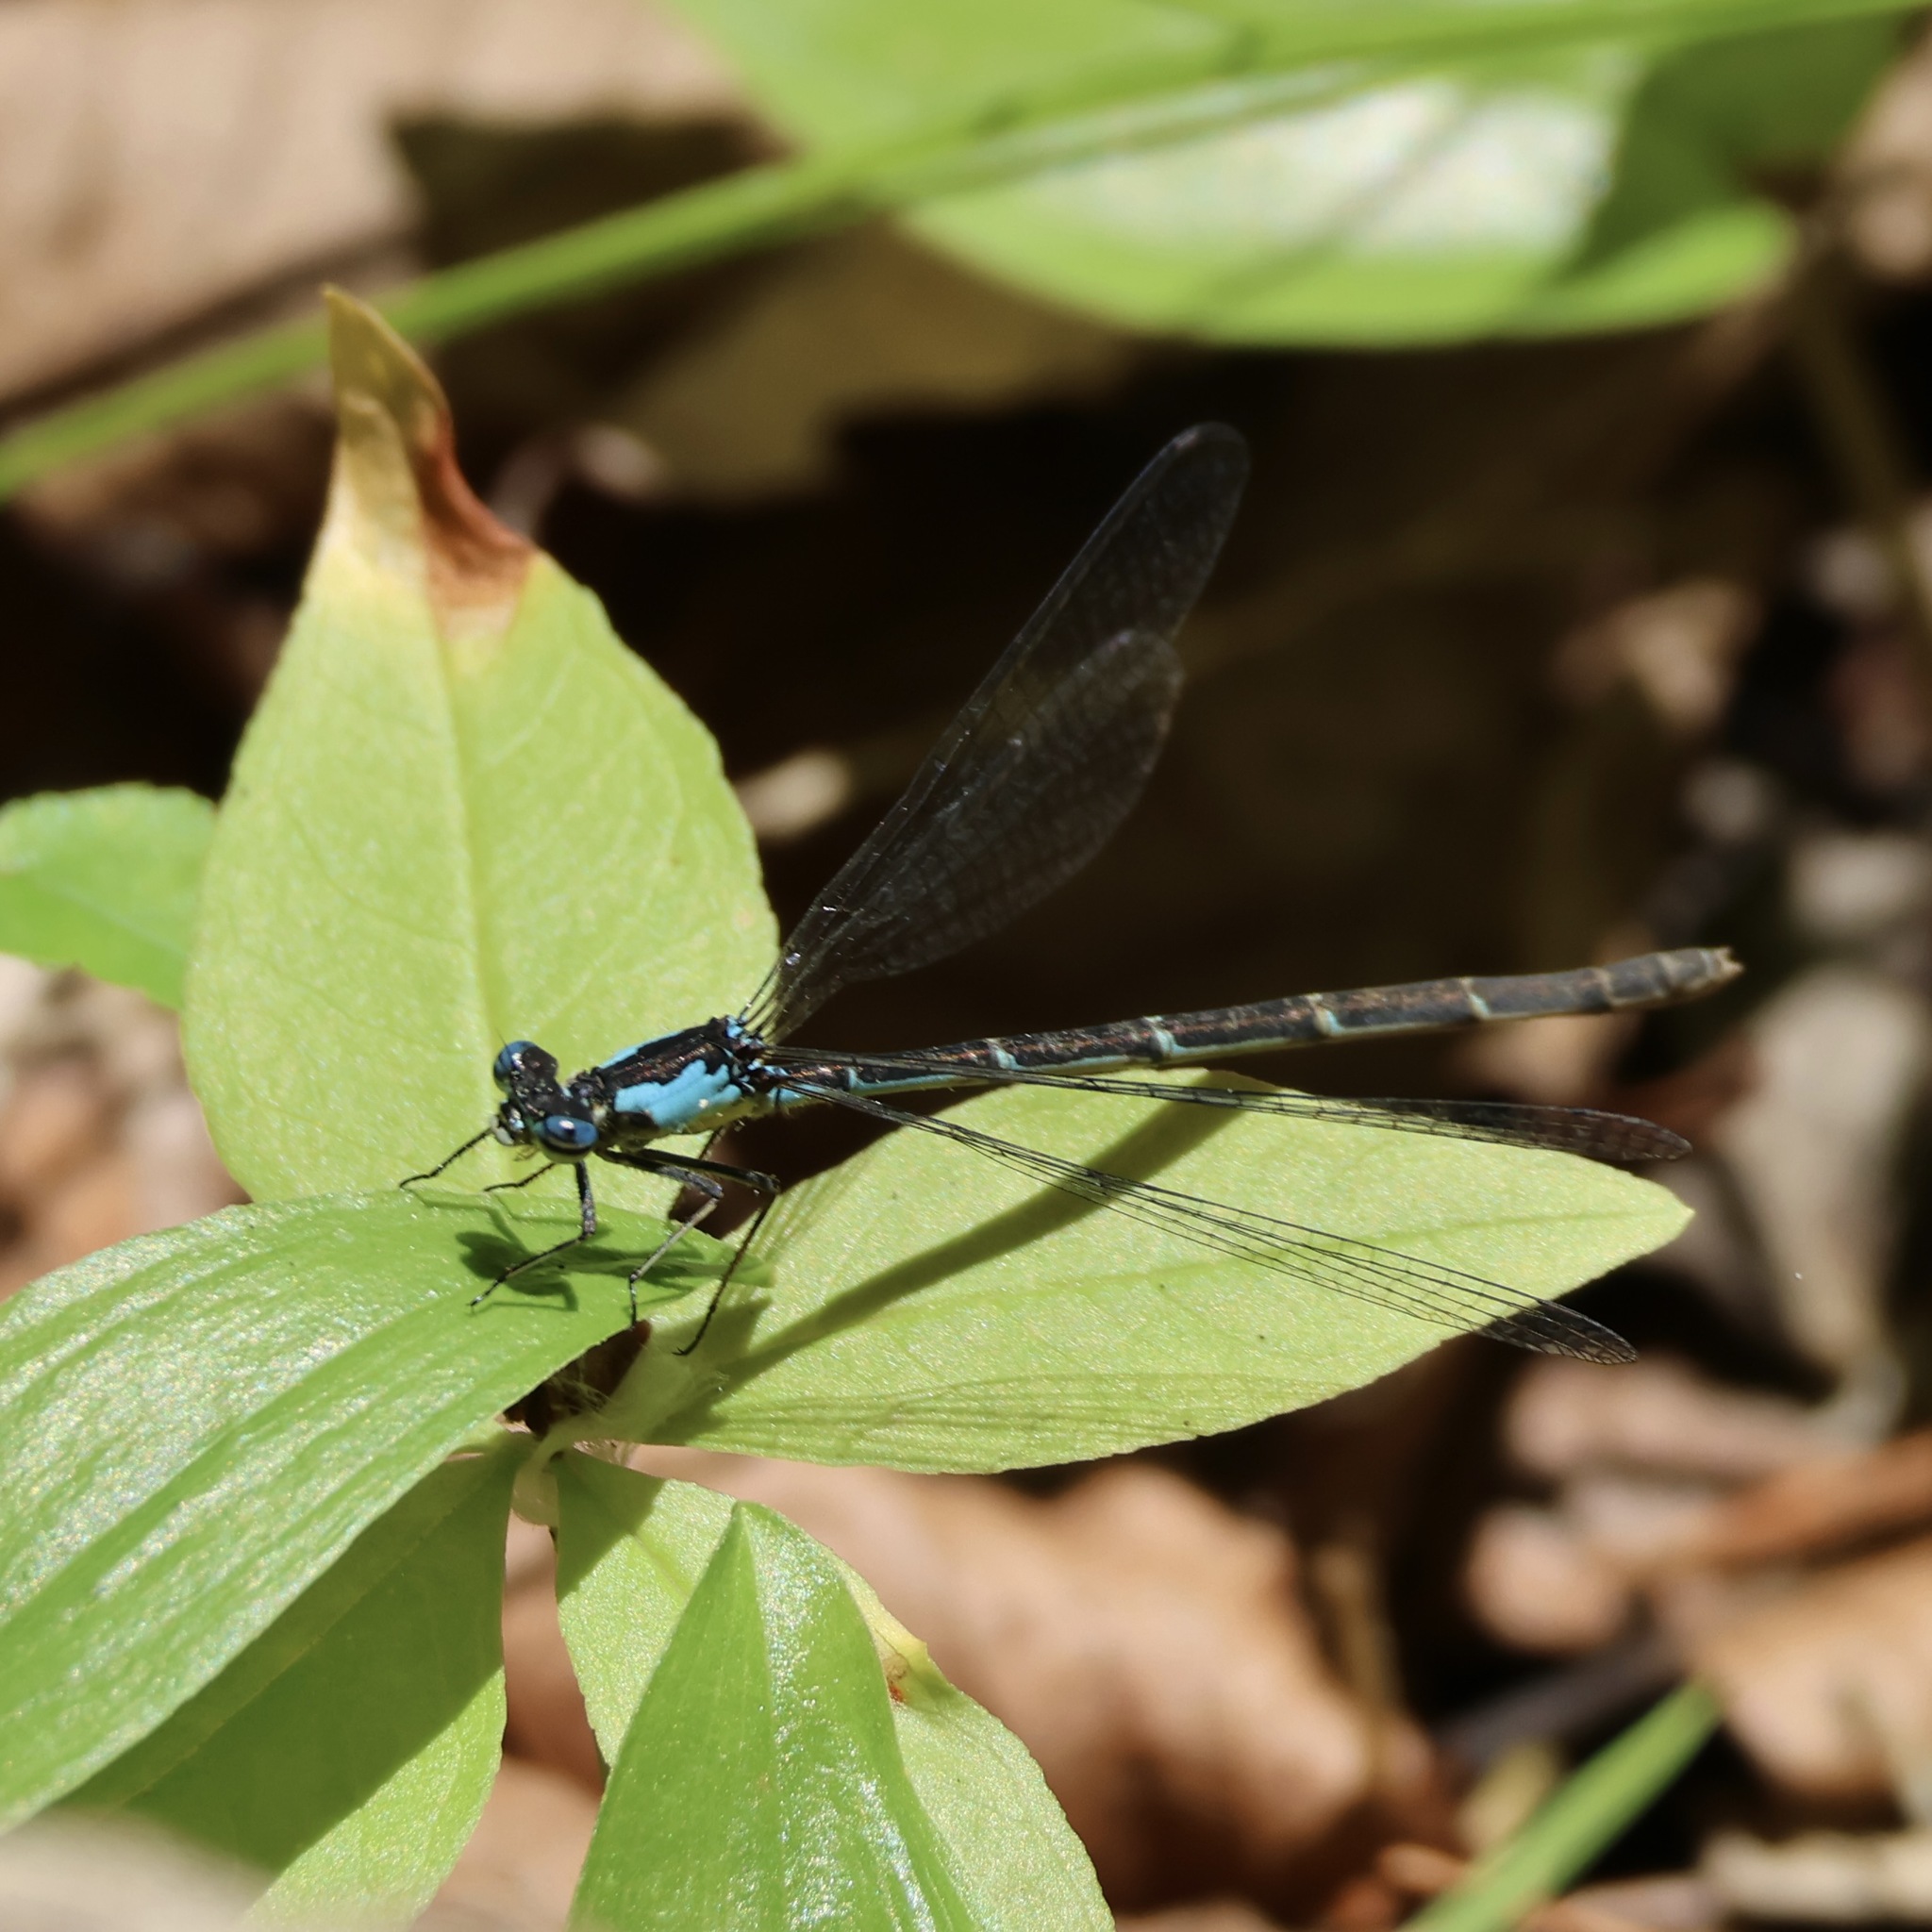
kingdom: Animalia
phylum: Arthropoda
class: Insecta
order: Odonata
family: Coenagrionidae
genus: Chromagrion
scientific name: Chromagrion conditum
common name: Aurora damsel
